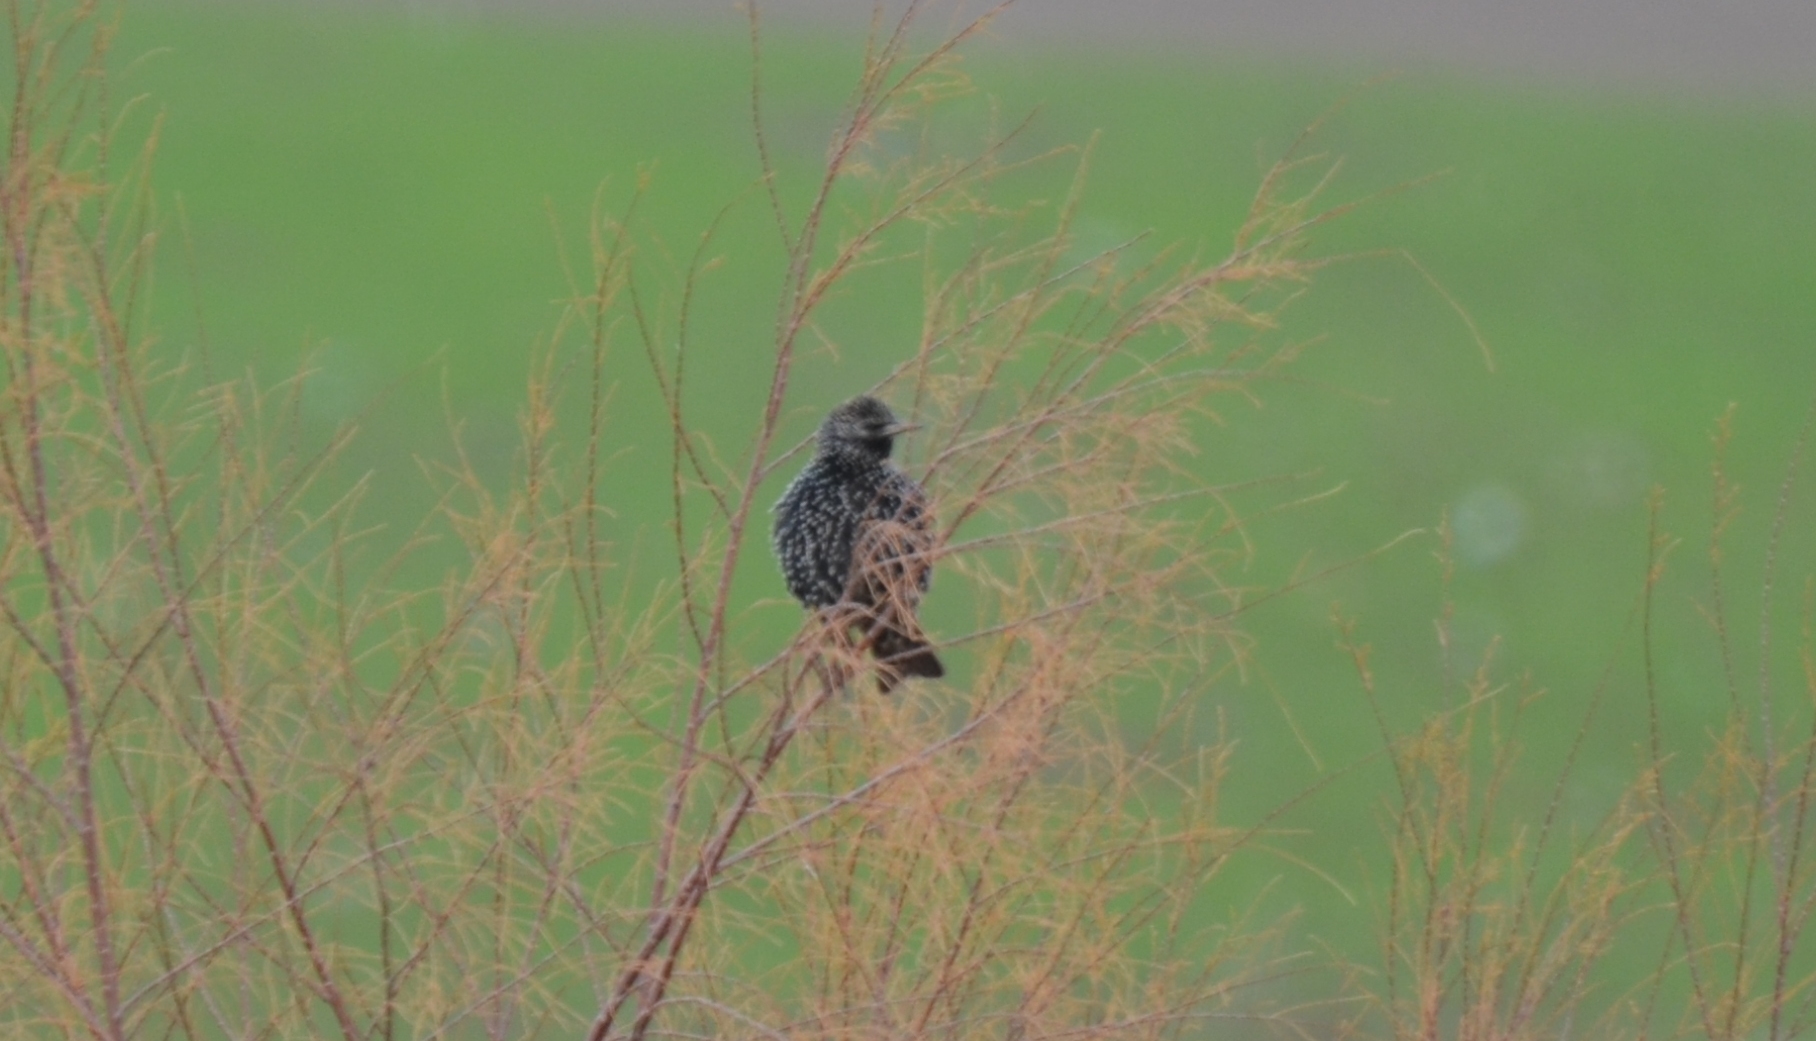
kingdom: Animalia
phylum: Chordata
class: Aves
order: Passeriformes
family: Sturnidae
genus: Sturnus
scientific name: Sturnus vulgaris
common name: Common starling
